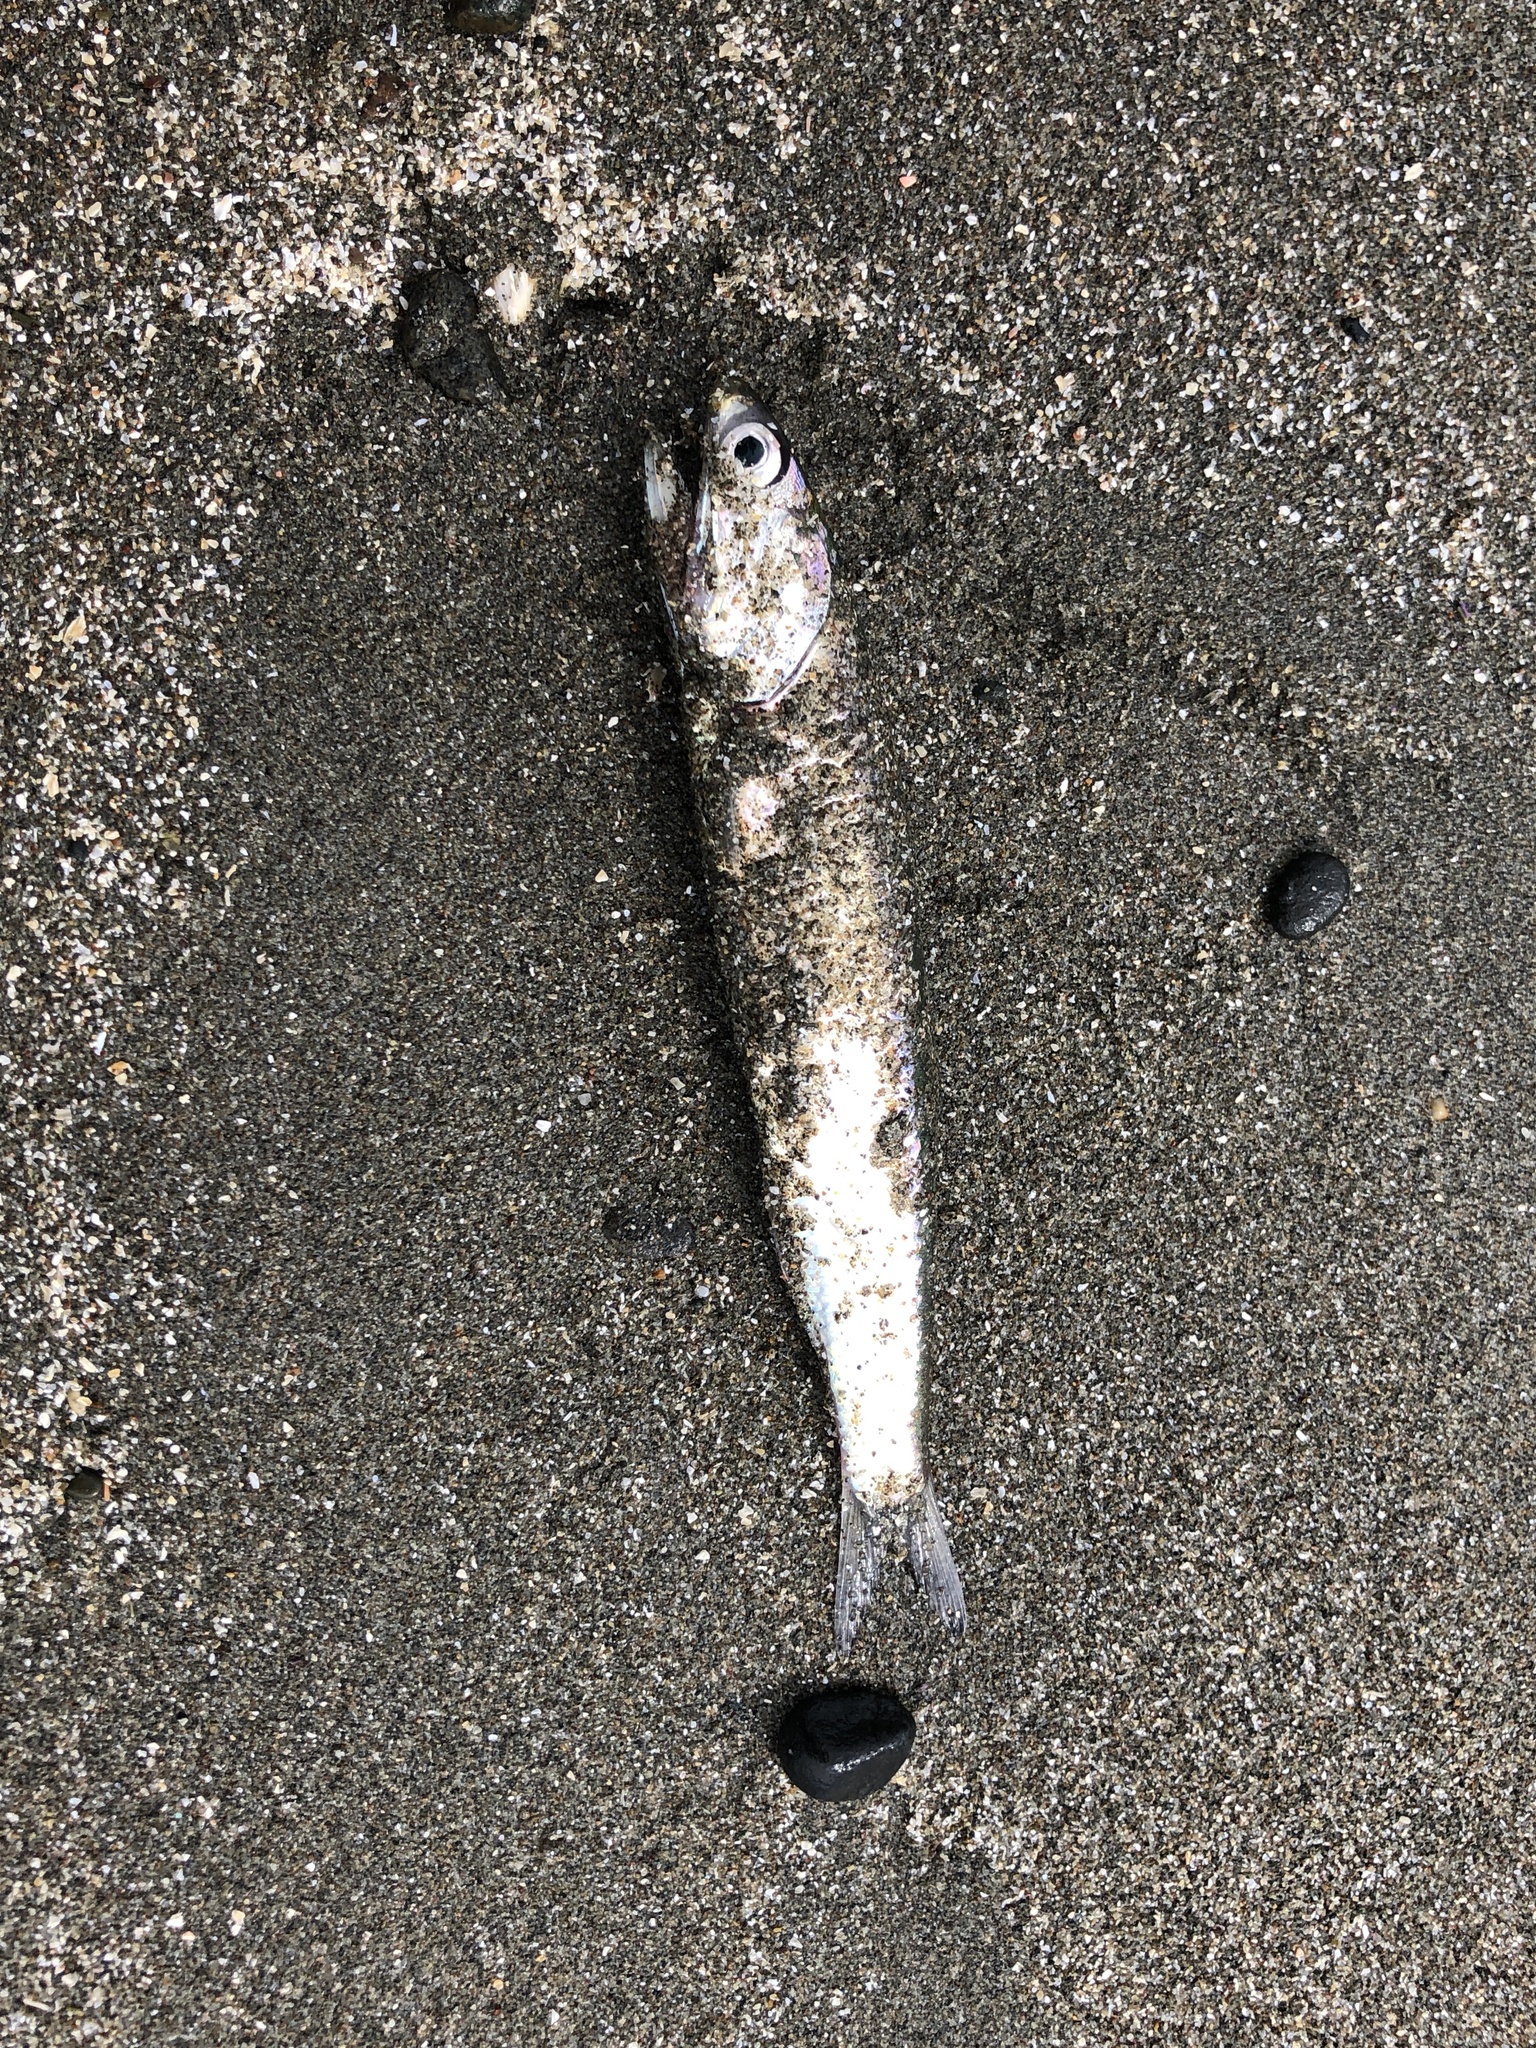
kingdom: Animalia
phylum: Chordata
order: Clupeiformes
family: Engraulidae
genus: Engraulis
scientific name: Engraulis mordax
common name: Northern anchovy
